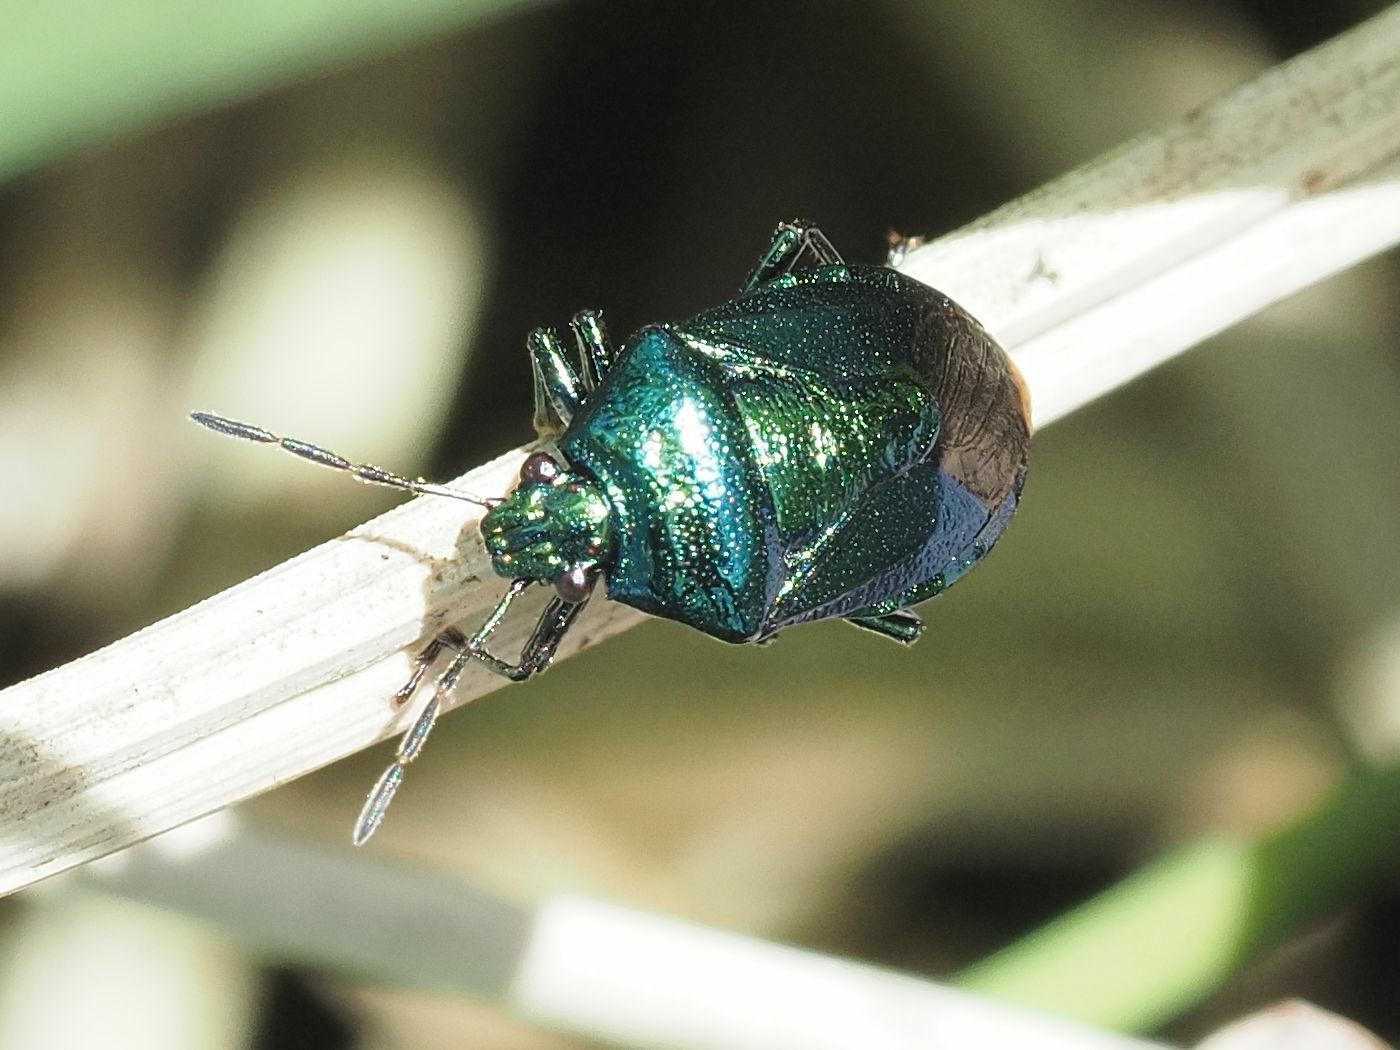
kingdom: Animalia
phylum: Arthropoda
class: Insecta
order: Hemiptera
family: Pentatomidae
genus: Zicrona
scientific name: Zicrona caerulea
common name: Blue shieldbug
